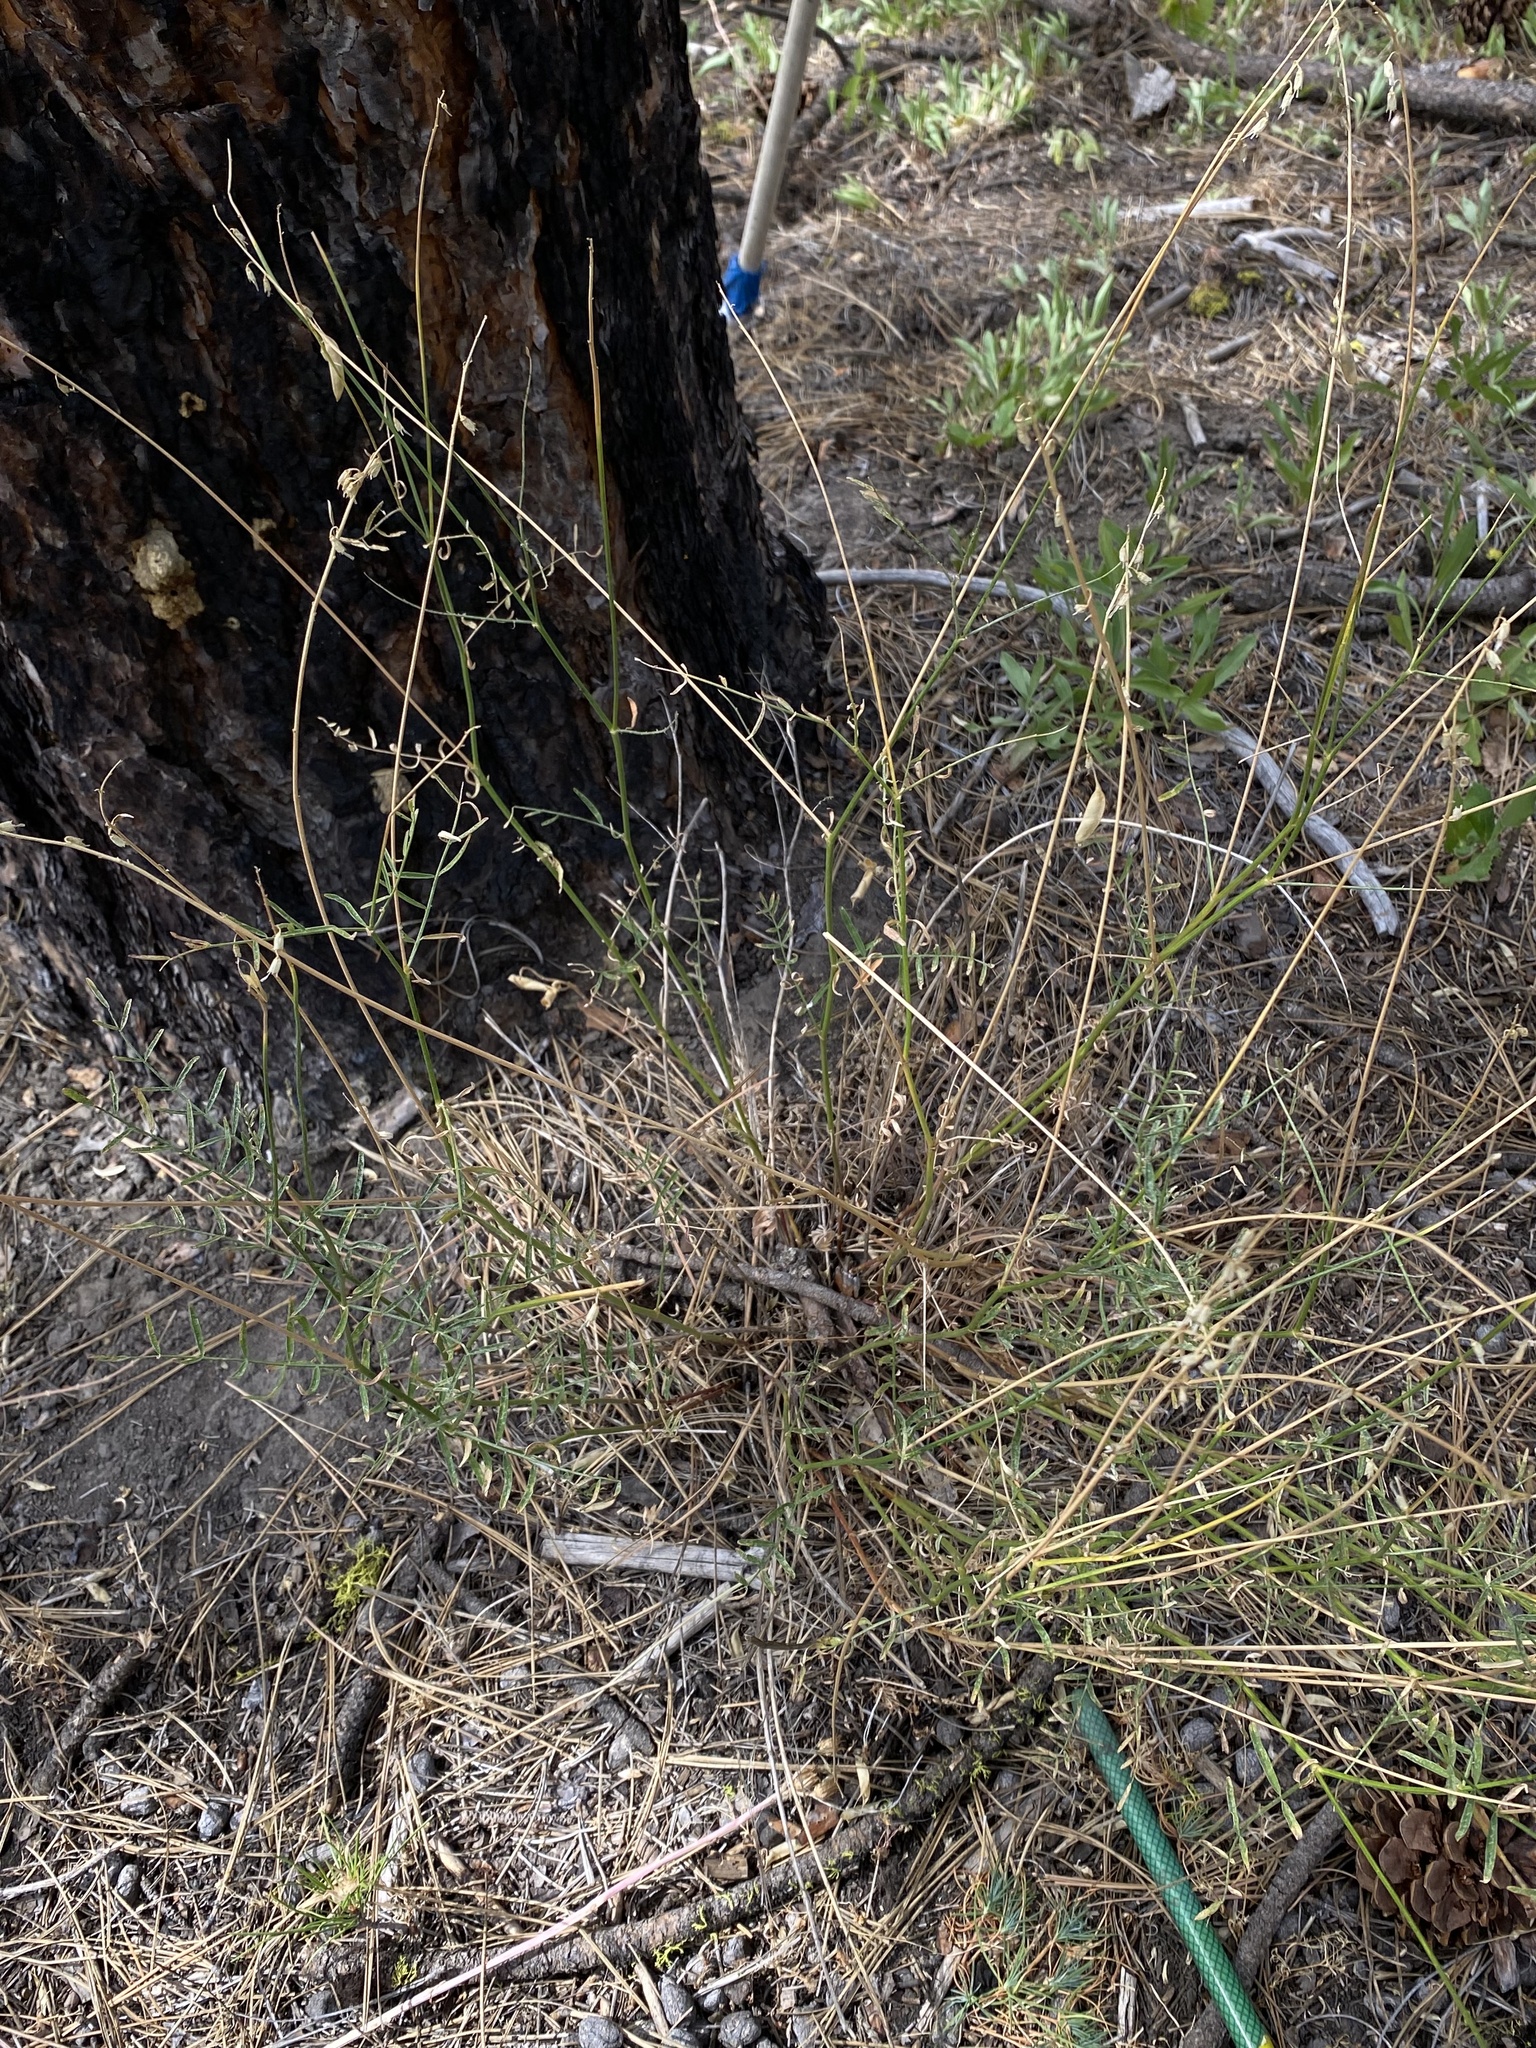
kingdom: Plantae
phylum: Tracheophyta
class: Magnoliopsida
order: Fabales
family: Fabaceae
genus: Astragalus
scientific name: Astragalus filipes
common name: Basalt milk-vetch
